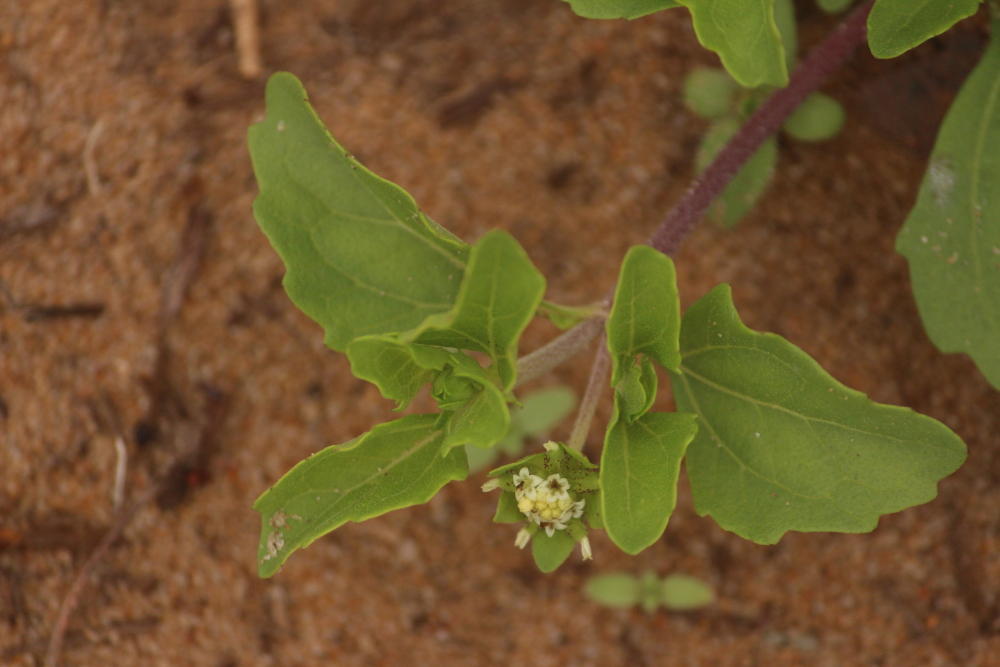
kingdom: Plantae
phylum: Tracheophyta
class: Magnoliopsida
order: Asterales
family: Asteraceae
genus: Acanthospermum
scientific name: Acanthospermum australe
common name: Paraguayan starbur
